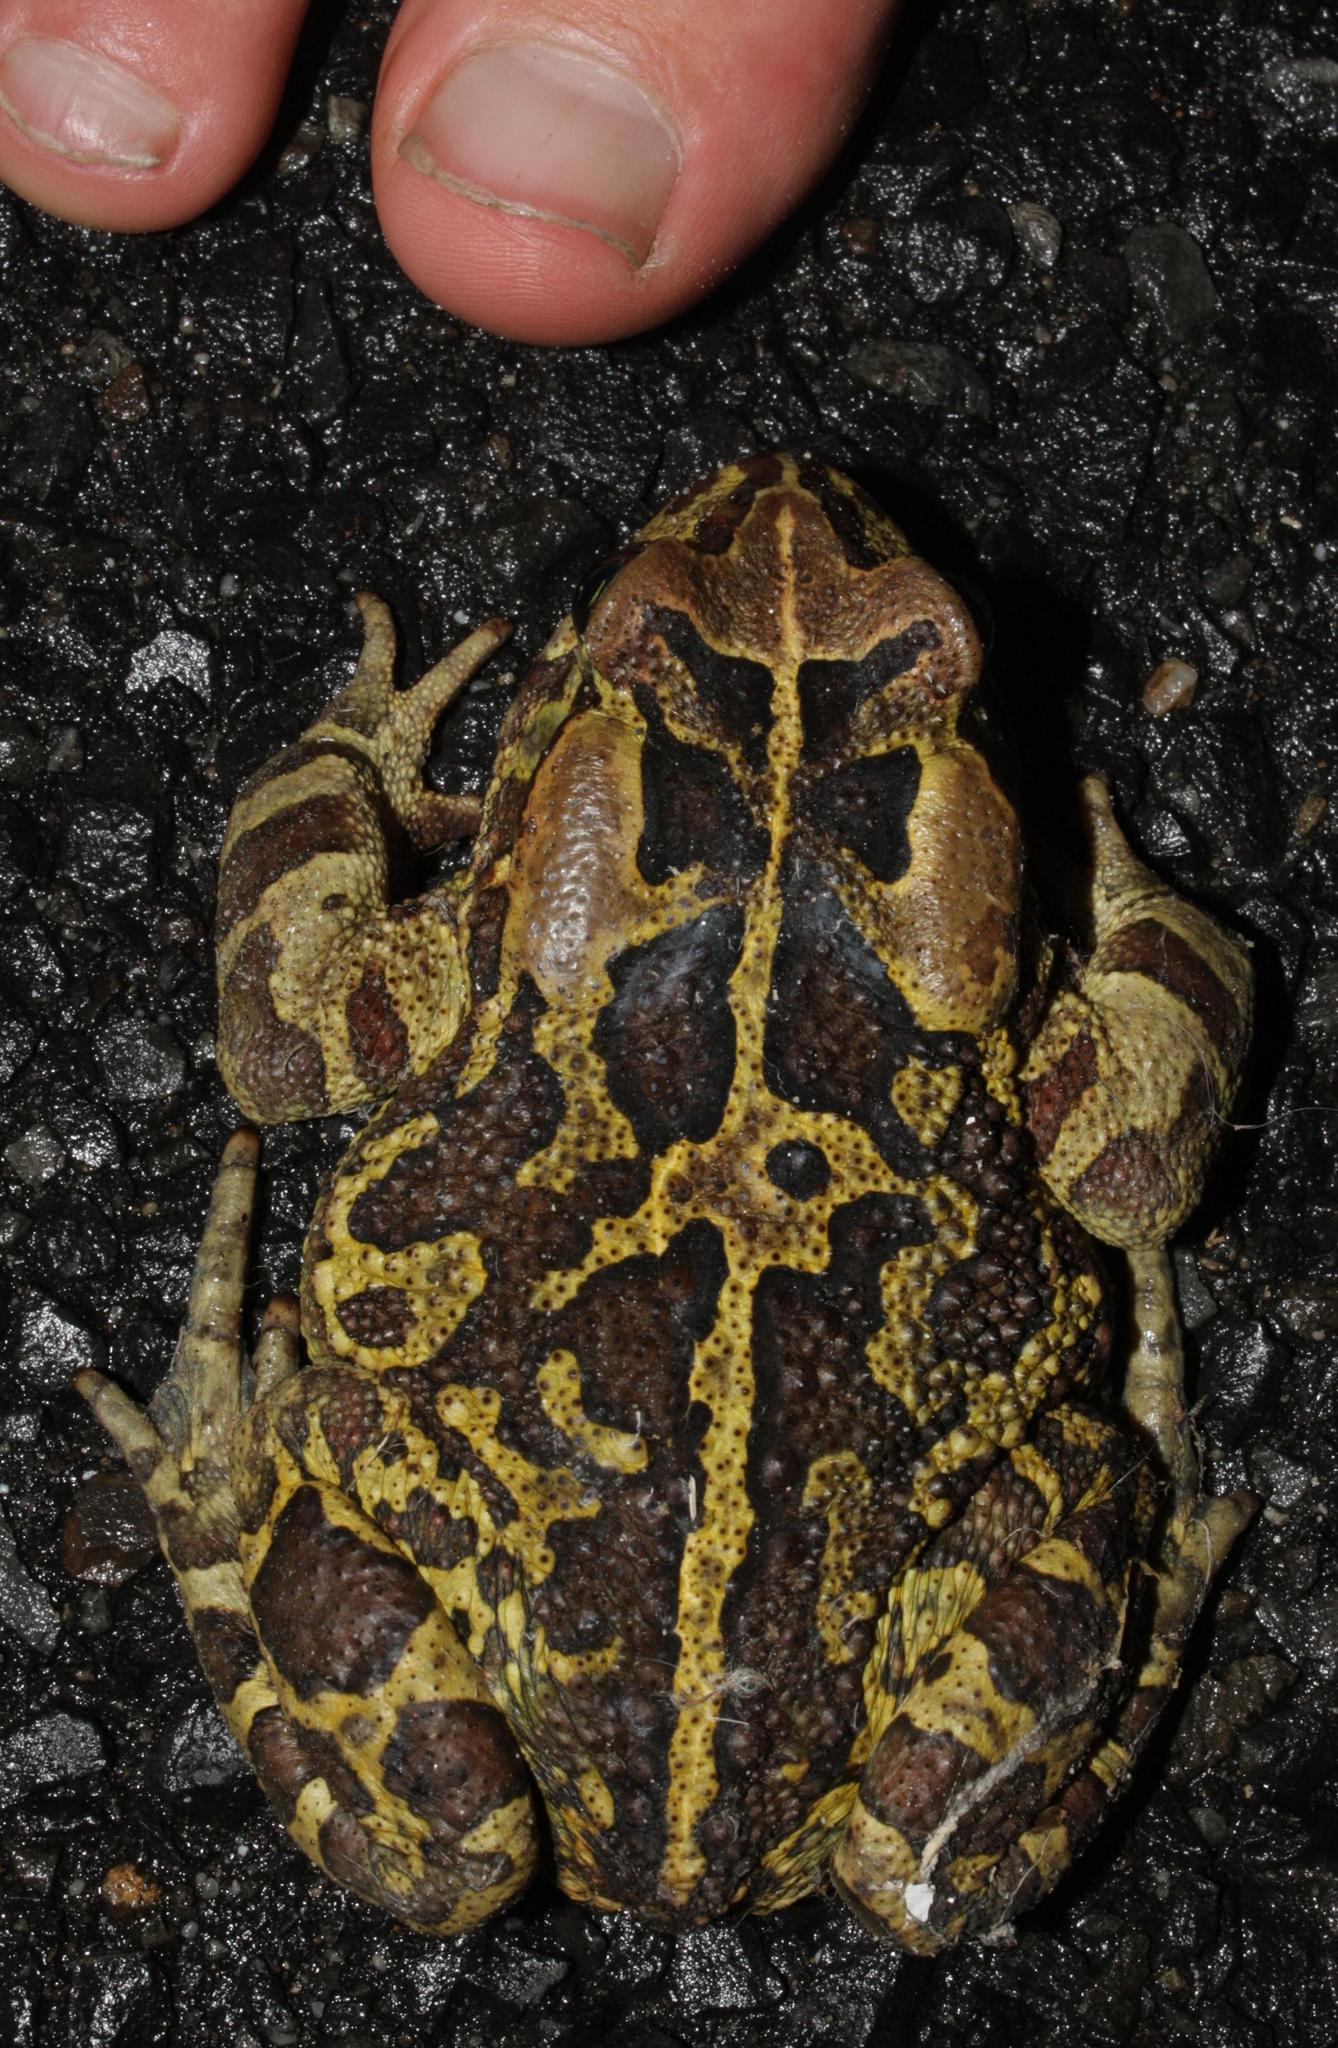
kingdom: Animalia
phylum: Chordata
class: Amphibia
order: Anura
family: Bufonidae
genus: Sclerophrys
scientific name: Sclerophrys pantherina
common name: Panther toad
